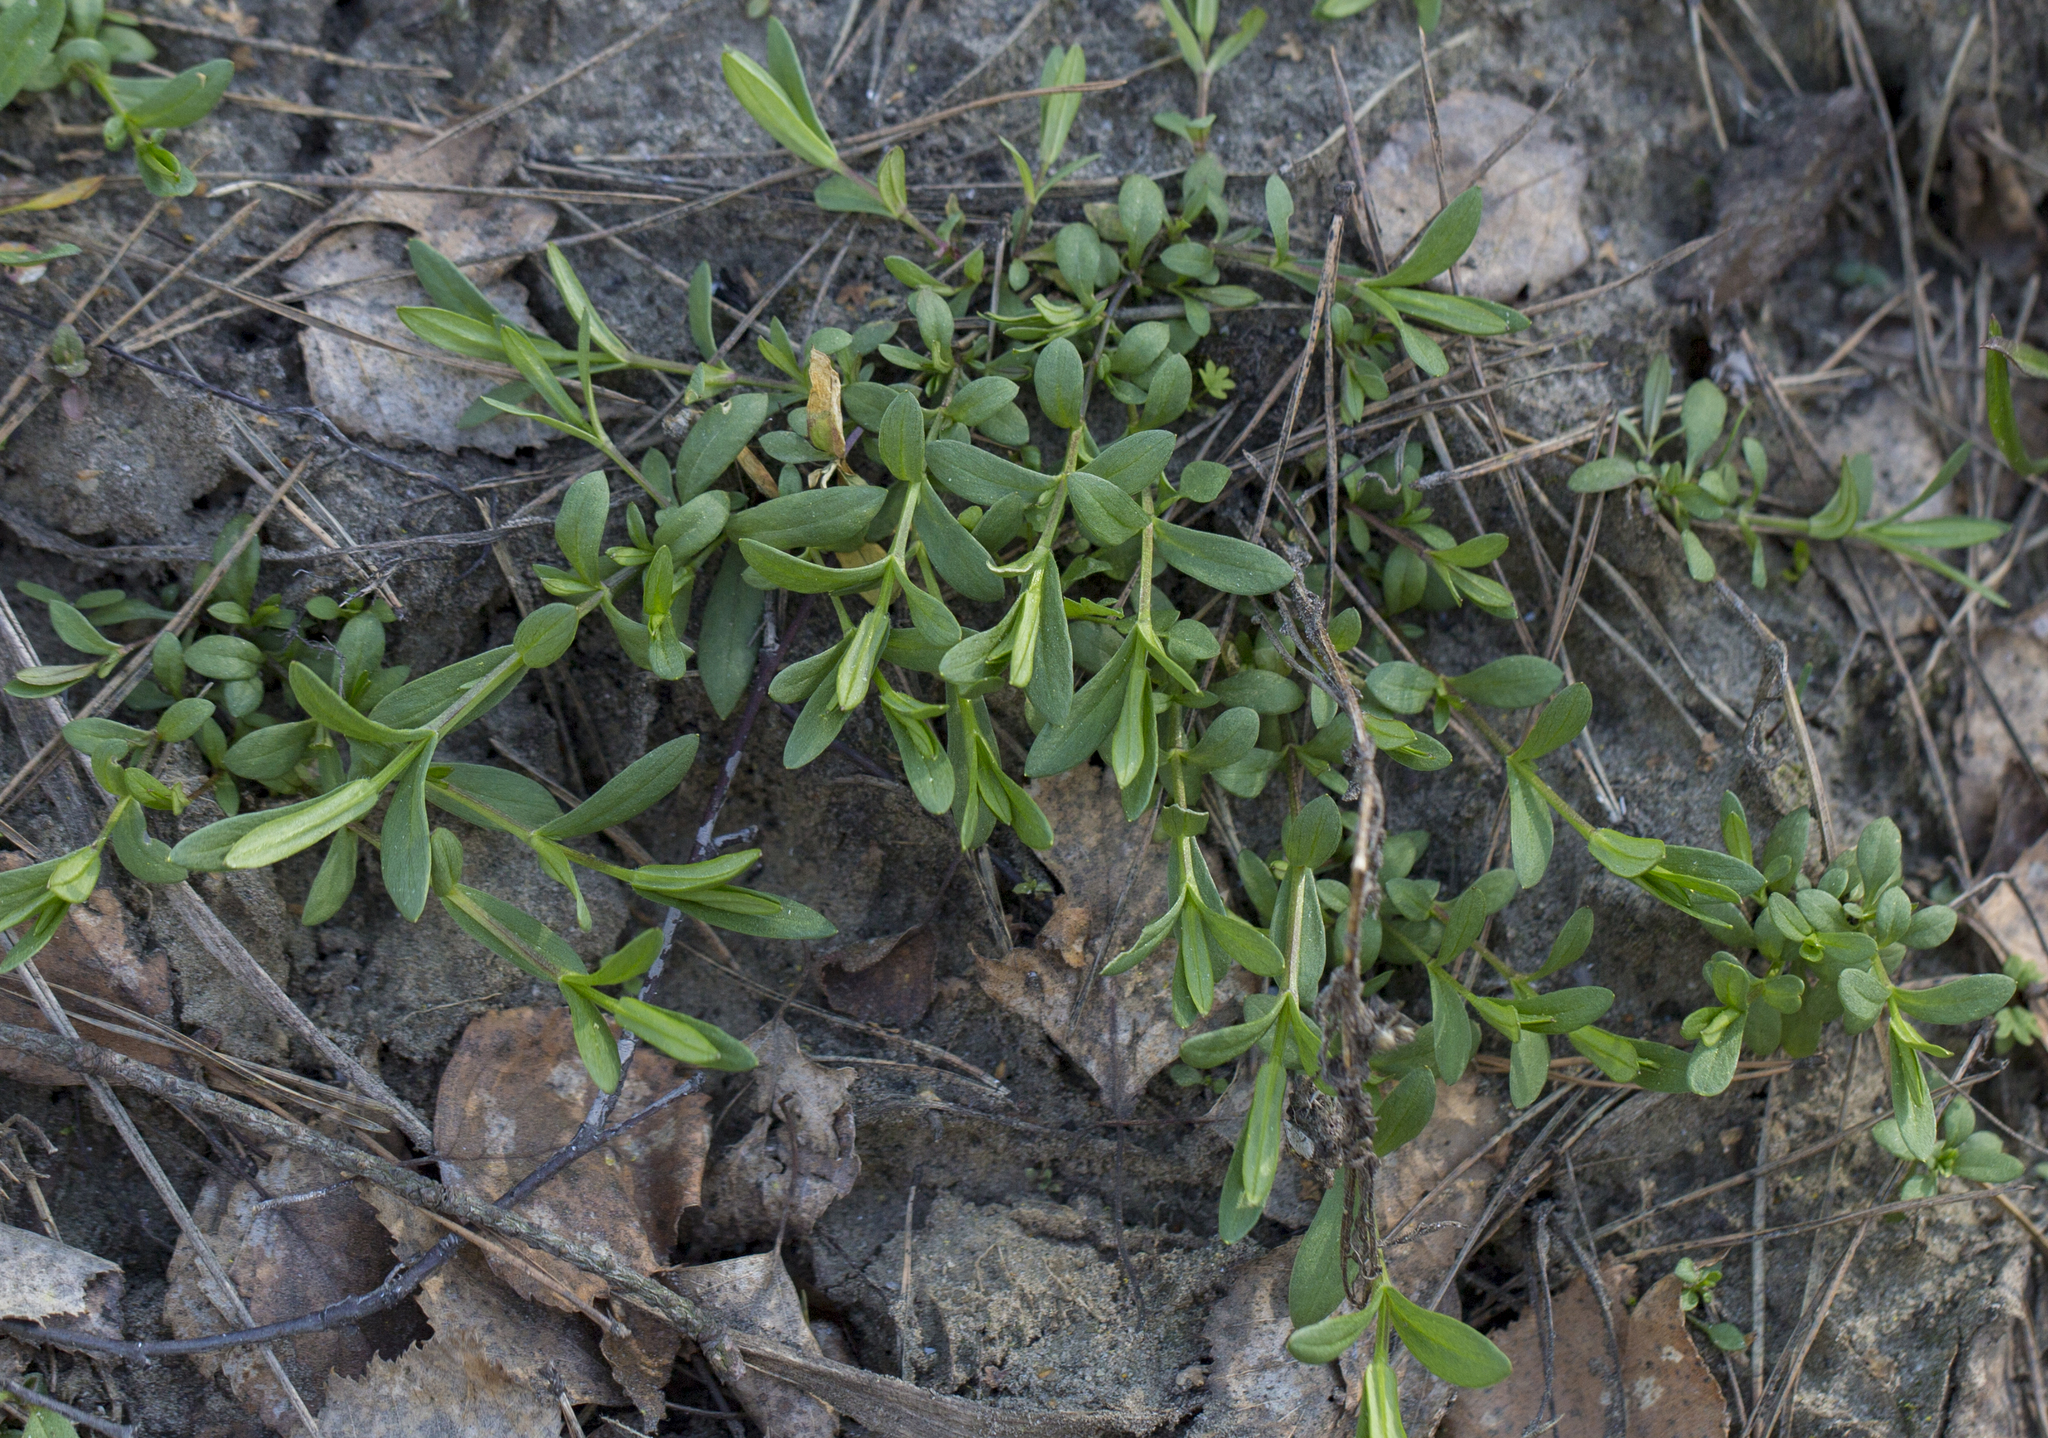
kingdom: Plantae
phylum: Tracheophyta
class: Magnoliopsida
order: Caryophyllales
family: Caryophyllaceae
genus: Stellaria
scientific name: Stellaria graminea
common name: Grass-like starwort
